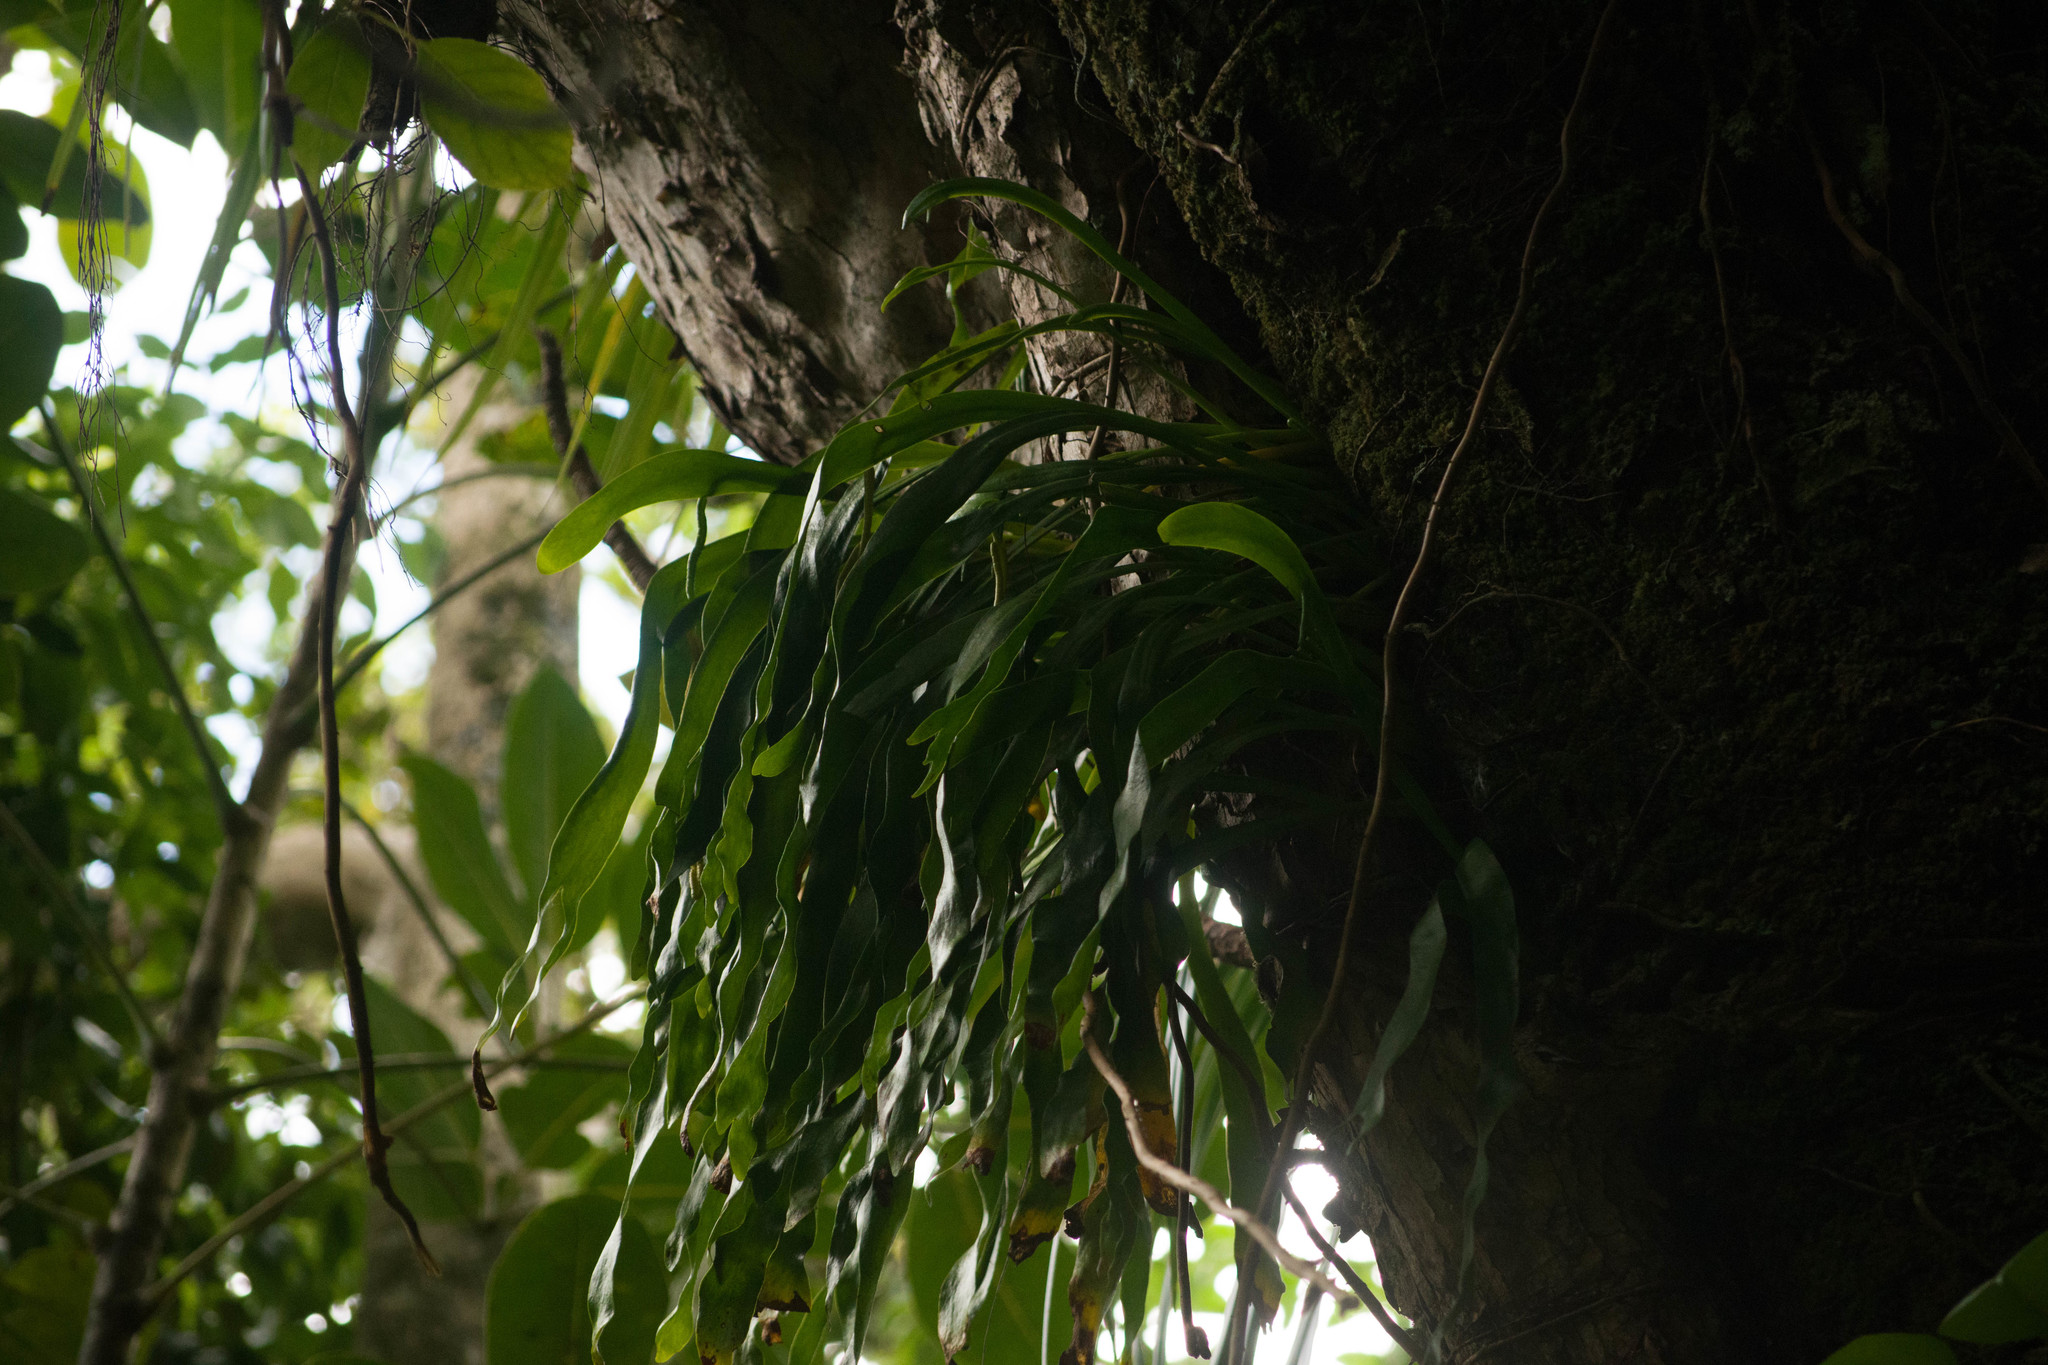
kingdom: Plantae
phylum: Tracheophyta
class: Polypodiopsida
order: Ophioglossales
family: Ophioglossaceae
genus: Ophioderma
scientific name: Ophioderma falcatum
